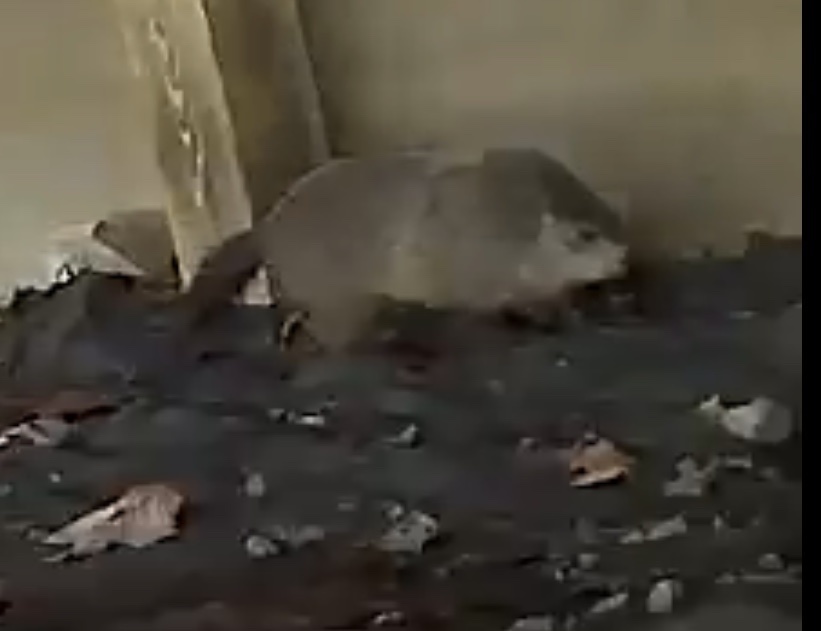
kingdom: Animalia
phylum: Chordata
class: Mammalia
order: Rodentia
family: Sciuridae
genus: Marmota
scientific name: Marmota monax
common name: Groundhog
